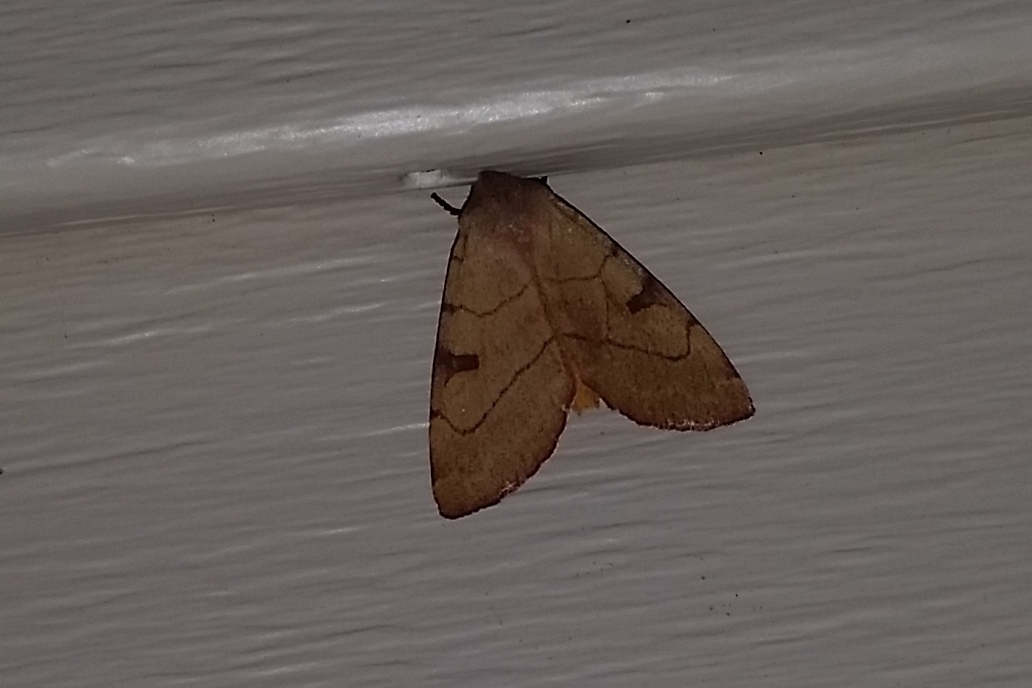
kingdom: Animalia
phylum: Arthropoda
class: Insecta
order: Lepidoptera
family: Noctuidae
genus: Choephora
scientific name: Choephora fungorum
